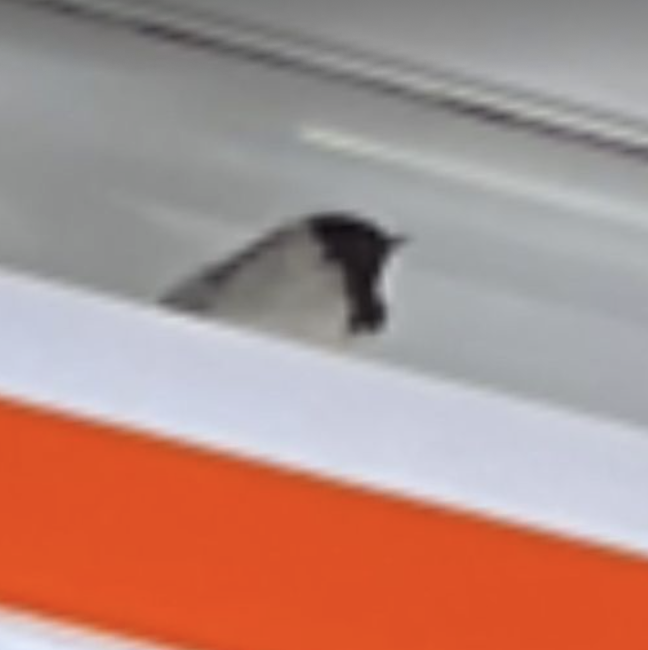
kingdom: Animalia
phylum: Chordata
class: Aves
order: Passeriformes
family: Hirundinidae
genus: Hirundo
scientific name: Hirundo rustica
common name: Barn swallow
